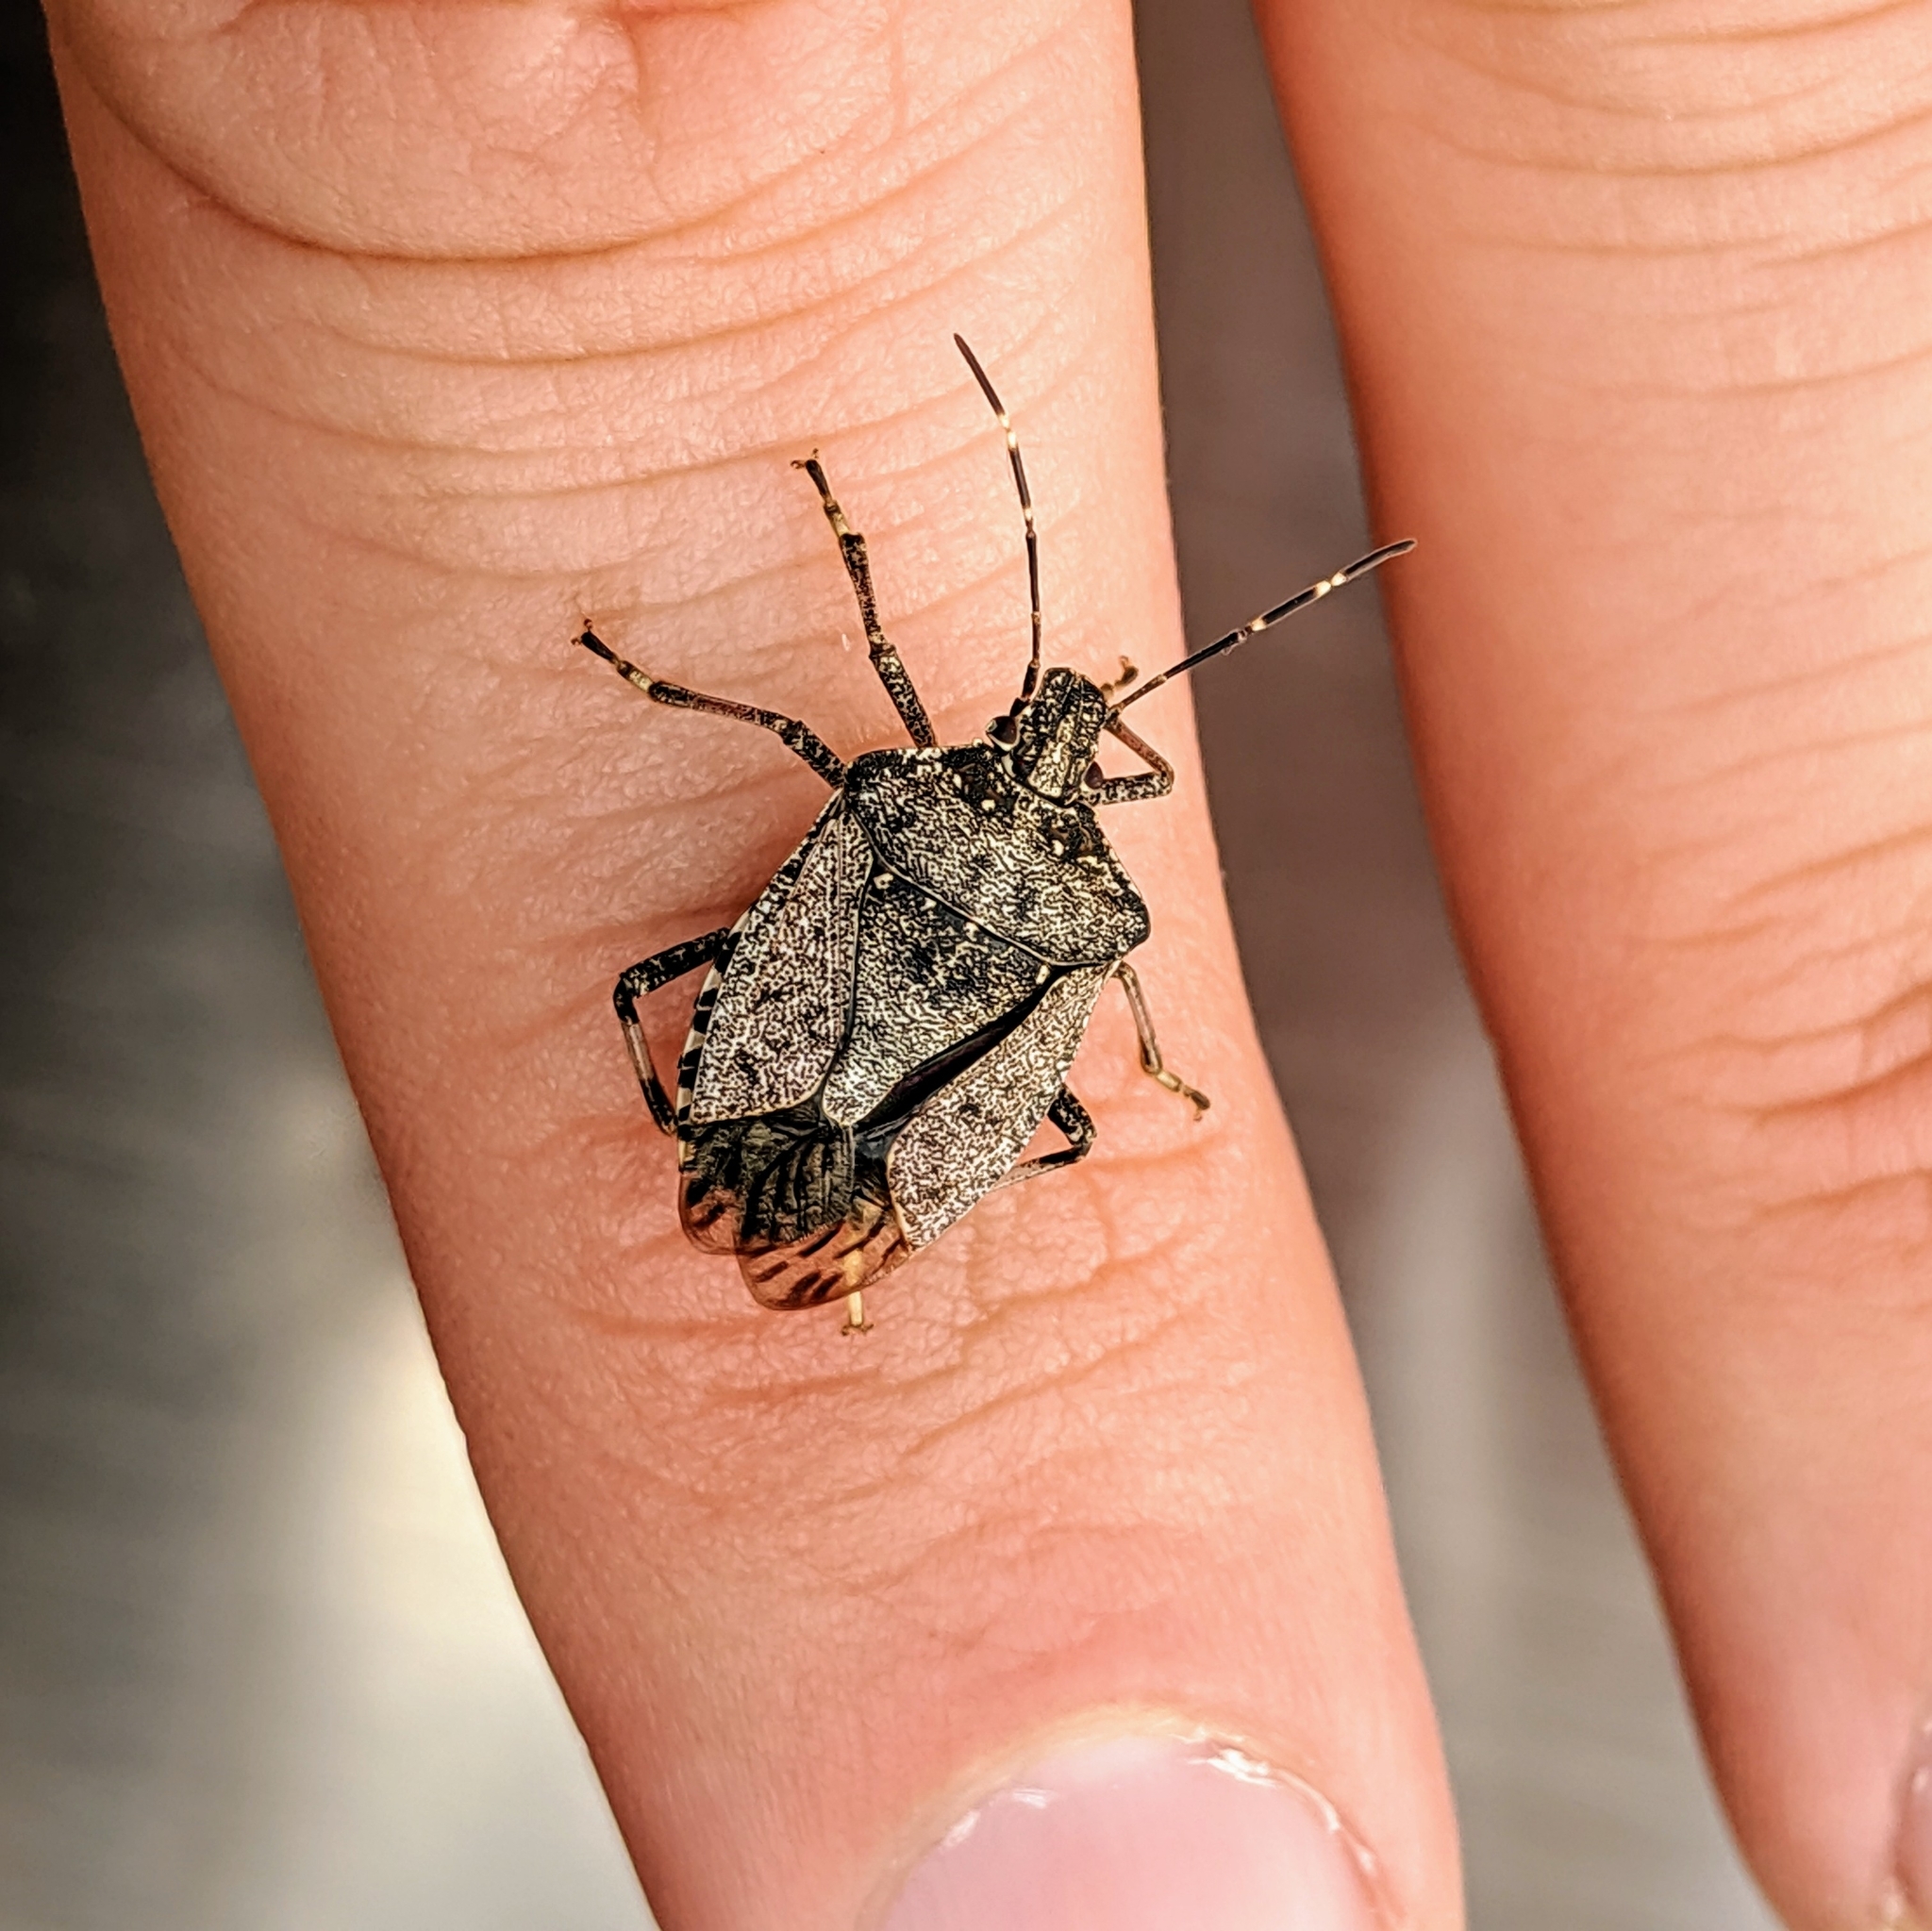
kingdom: Animalia
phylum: Arthropoda
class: Insecta
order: Hemiptera
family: Pentatomidae
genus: Halyomorpha
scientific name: Halyomorpha halys
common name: Brown marmorated stink bug
